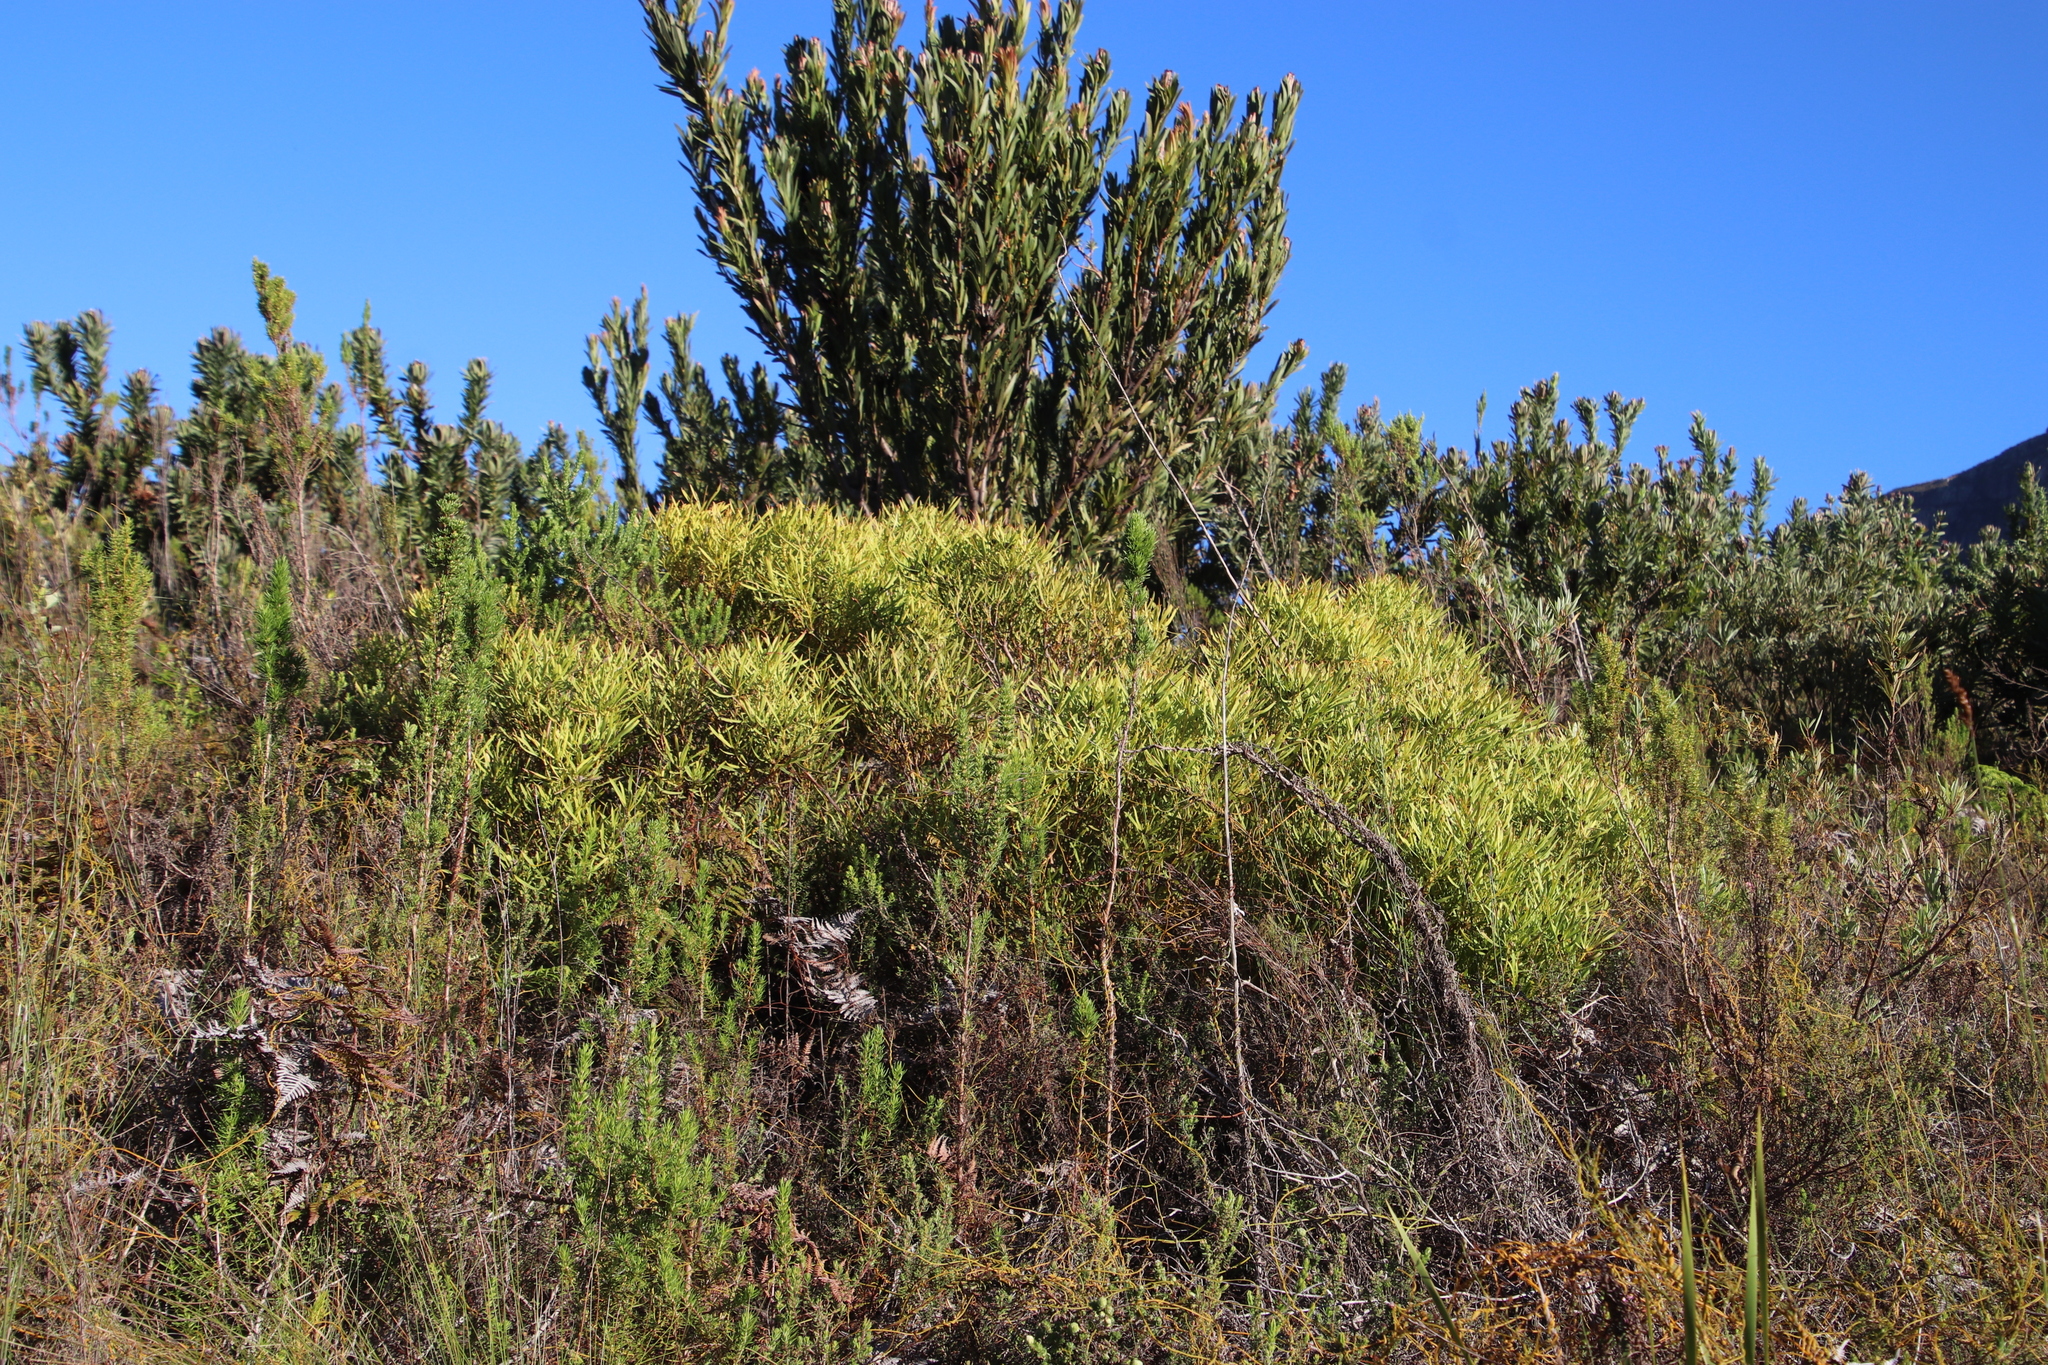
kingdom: Plantae
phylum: Tracheophyta
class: Magnoliopsida
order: Proteales
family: Proteaceae
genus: Leucadendron
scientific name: Leucadendron salignum
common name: Common sunshine conebush
